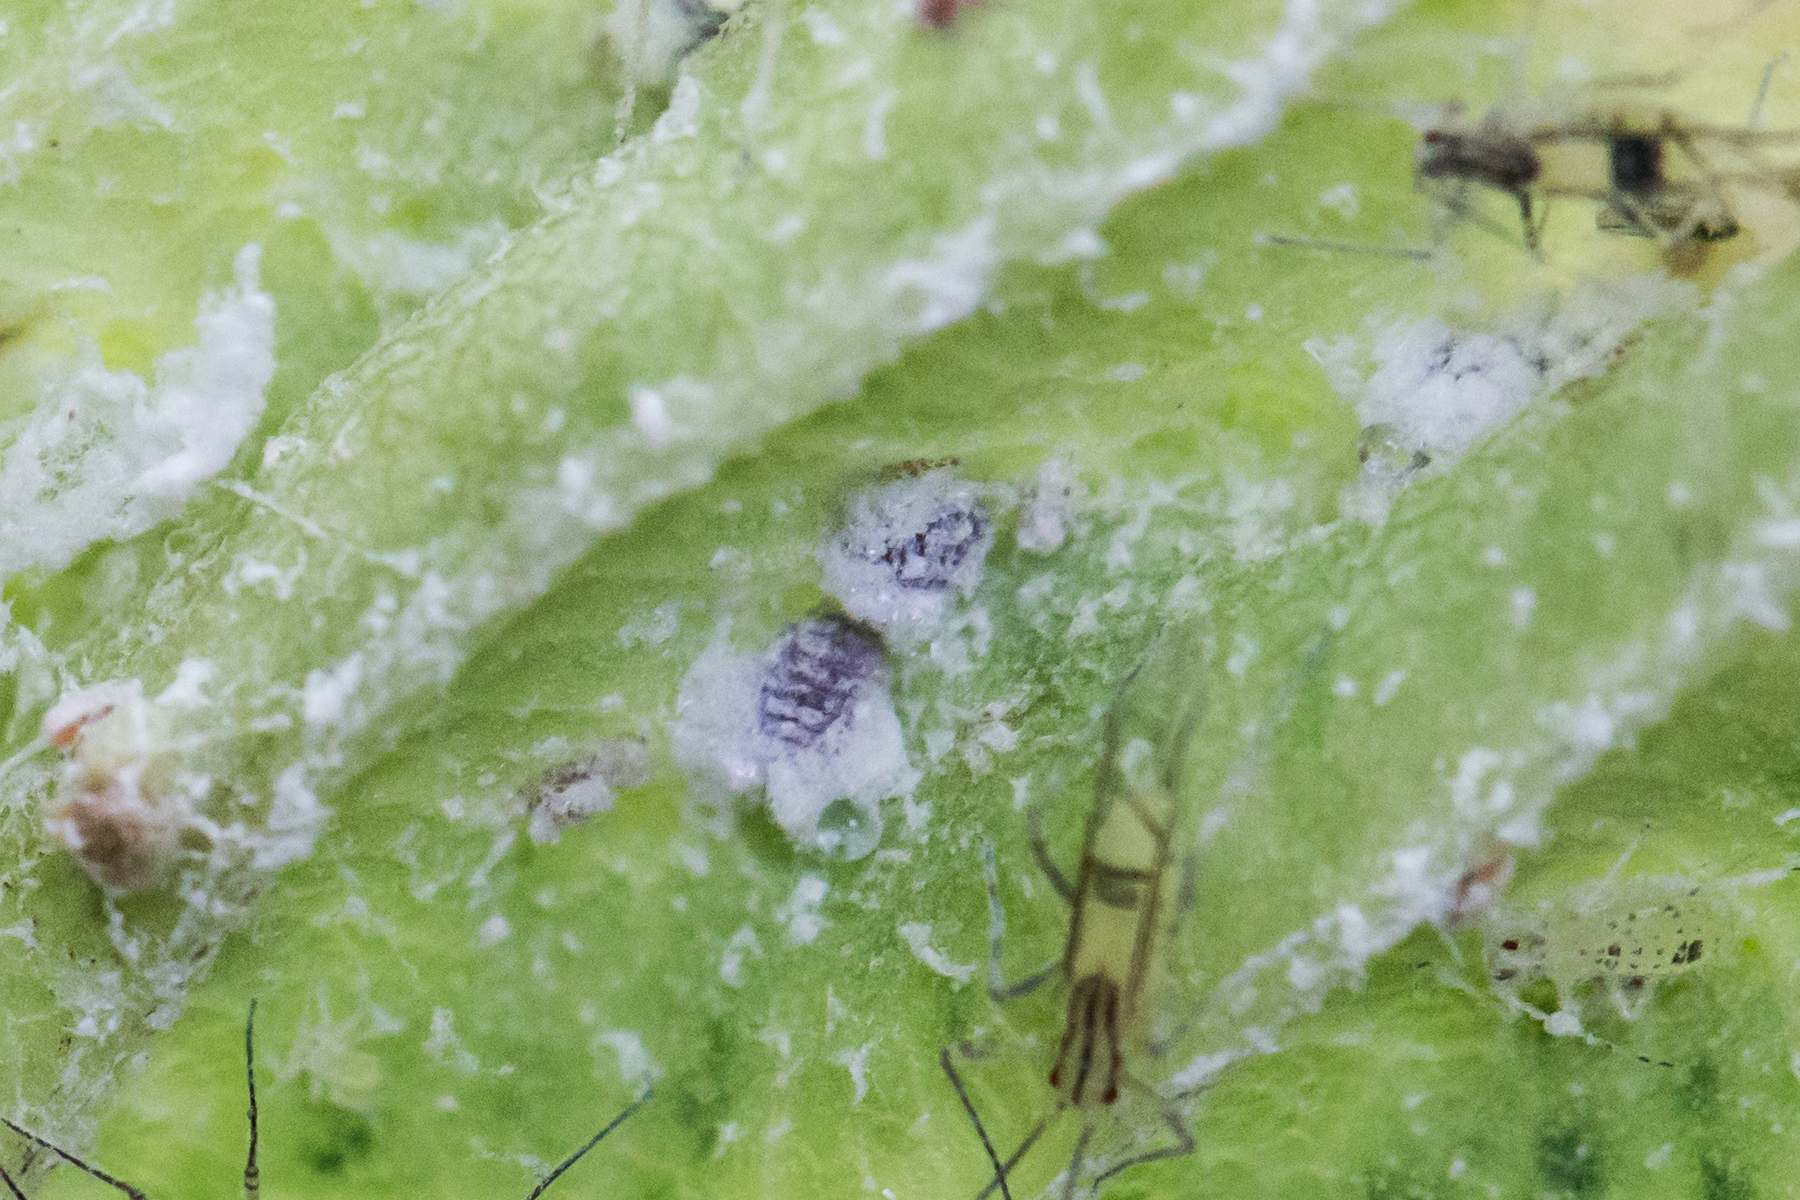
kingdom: Animalia
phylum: Arthropoda
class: Insecta
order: Hemiptera
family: Aphididae
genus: Hamamelistes
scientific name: Hamamelistes spinosus
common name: Witch hazel gall aphid
